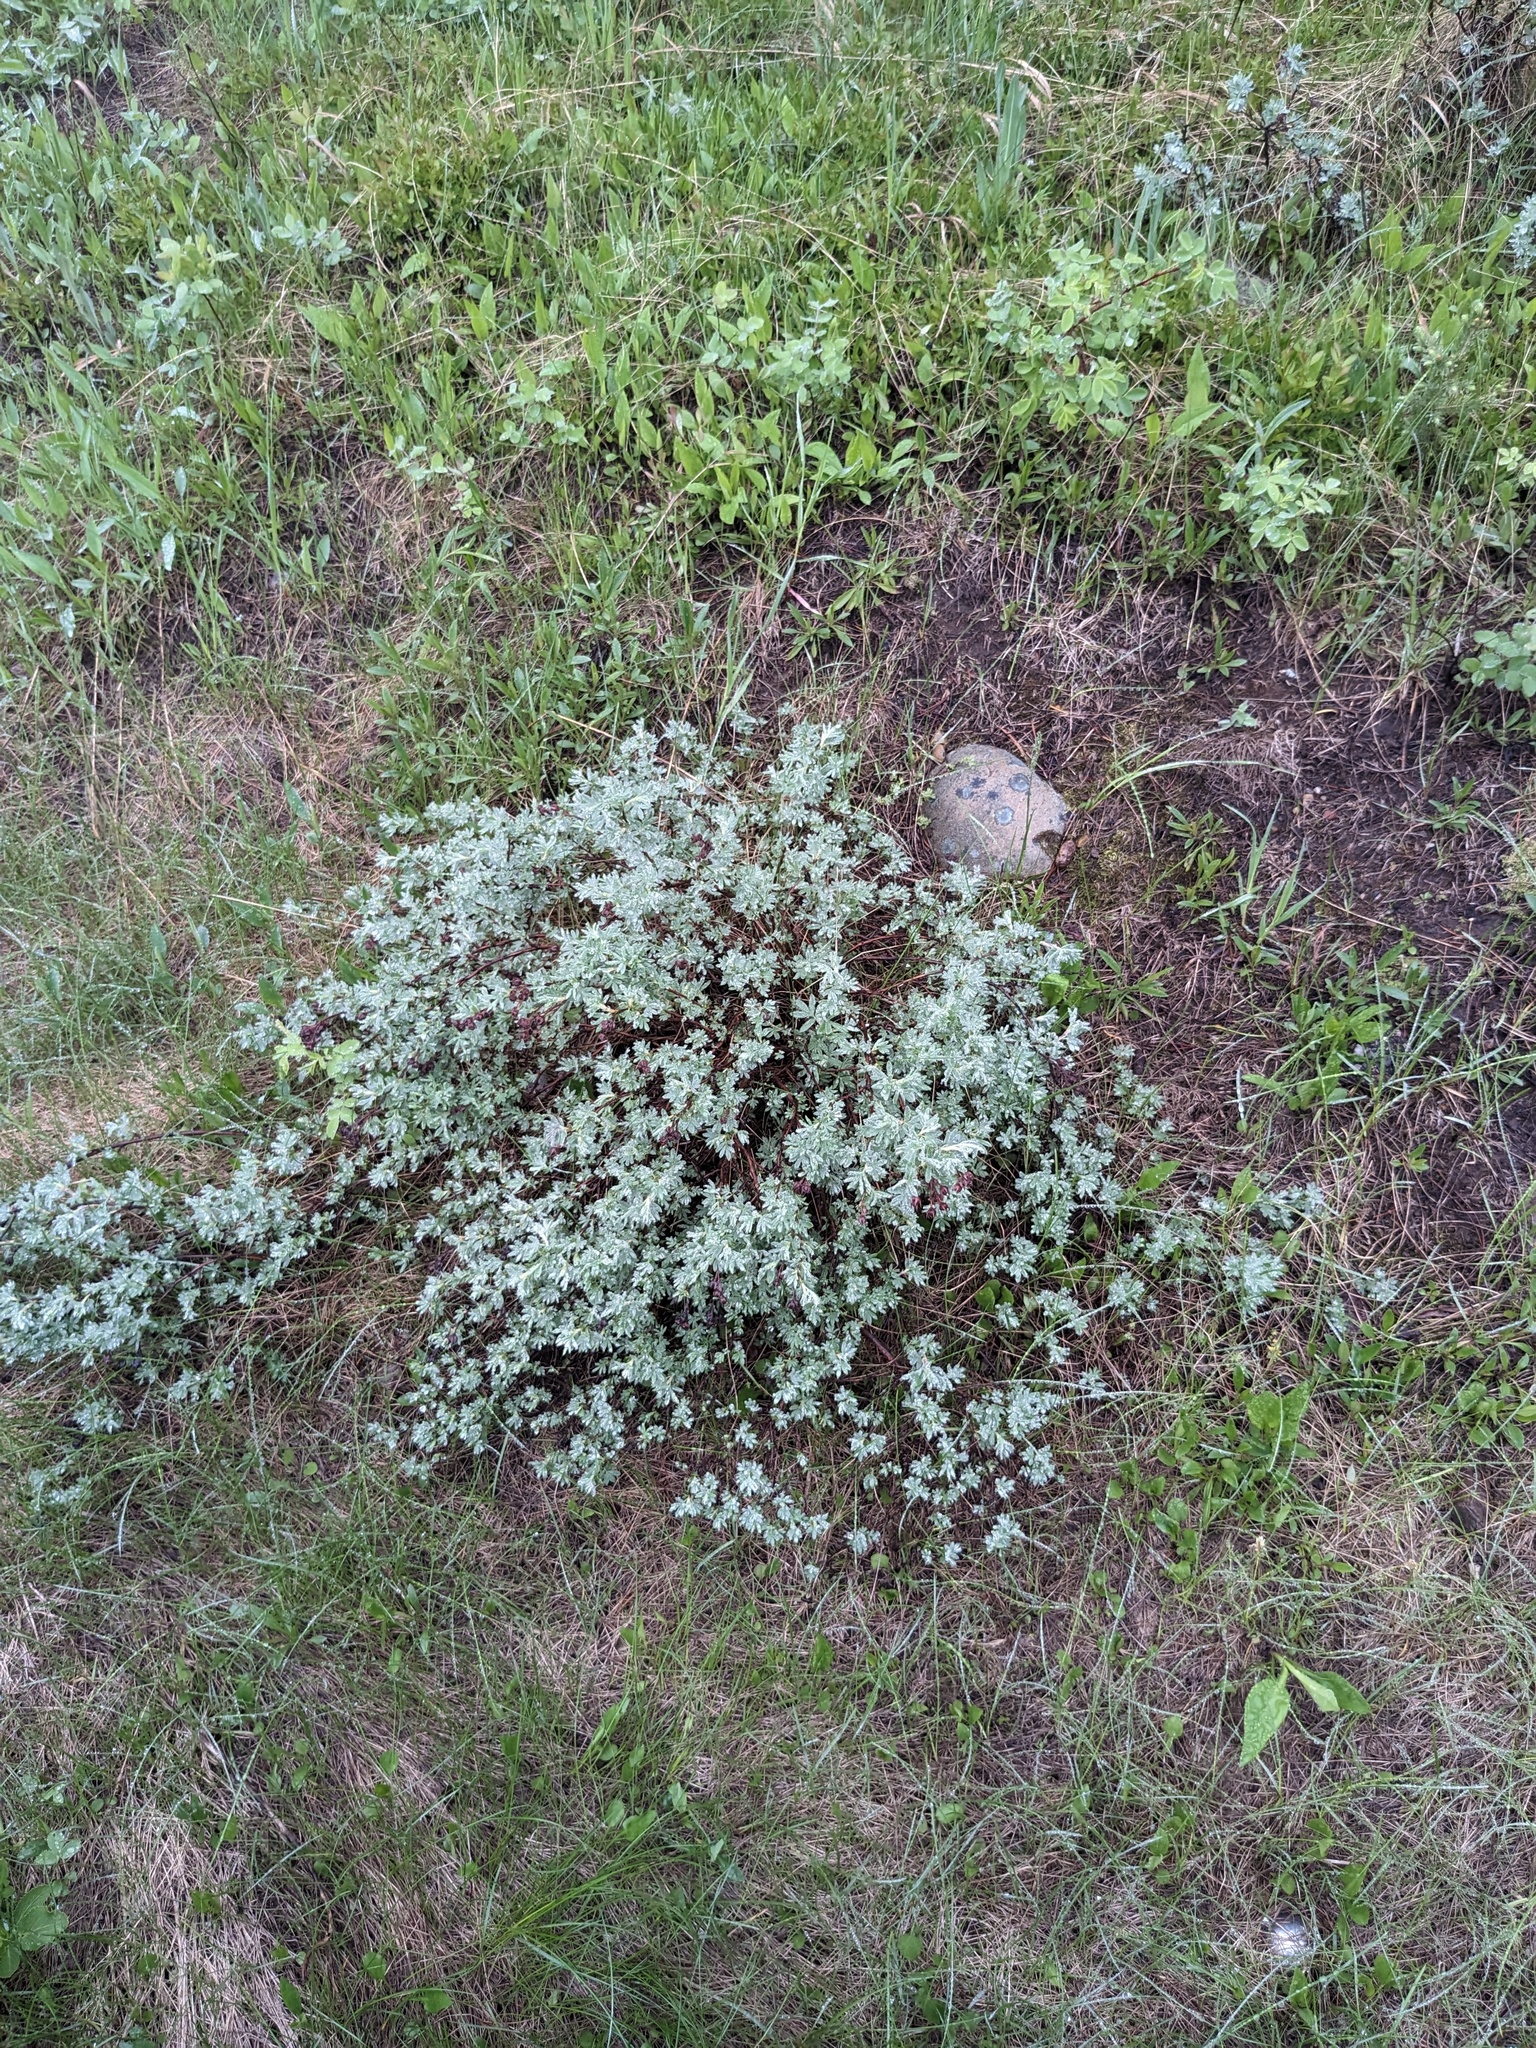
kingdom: Plantae
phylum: Tracheophyta
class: Magnoliopsida
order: Rosales
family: Rosaceae
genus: Dasiphora
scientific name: Dasiphora fruticosa
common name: Shrubby cinquefoil
